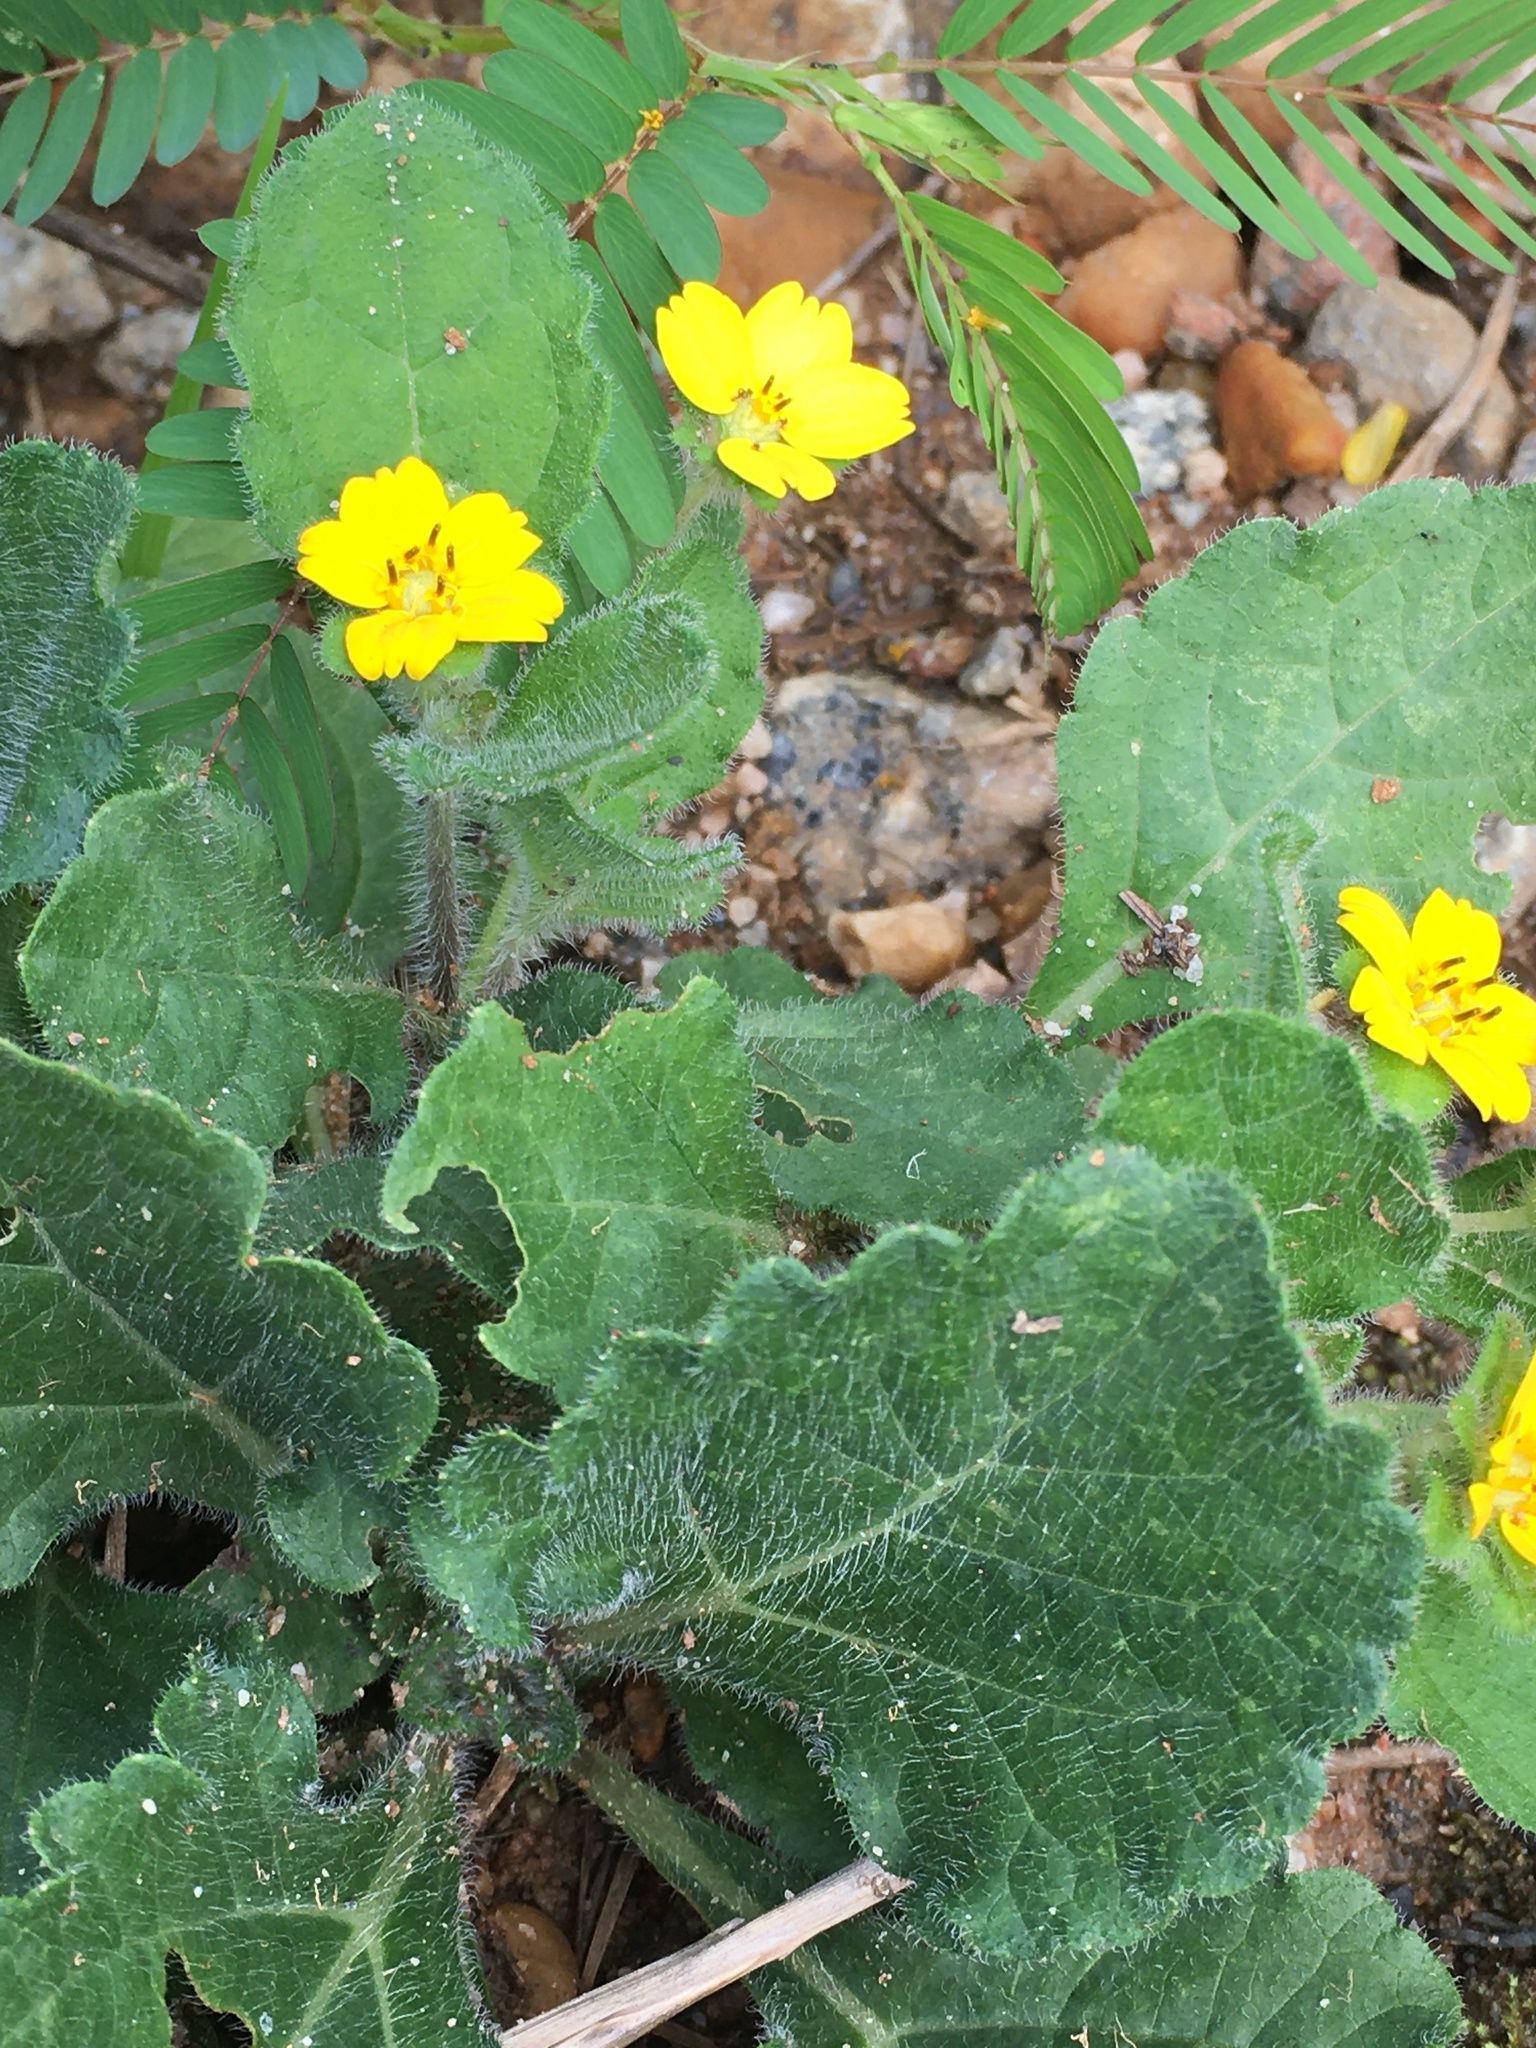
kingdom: Plantae
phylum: Tracheophyta
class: Magnoliopsida
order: Asterales
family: Asteraceae
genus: Chrysogonum
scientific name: Chrysogonum virginianum
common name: Golden-knee
